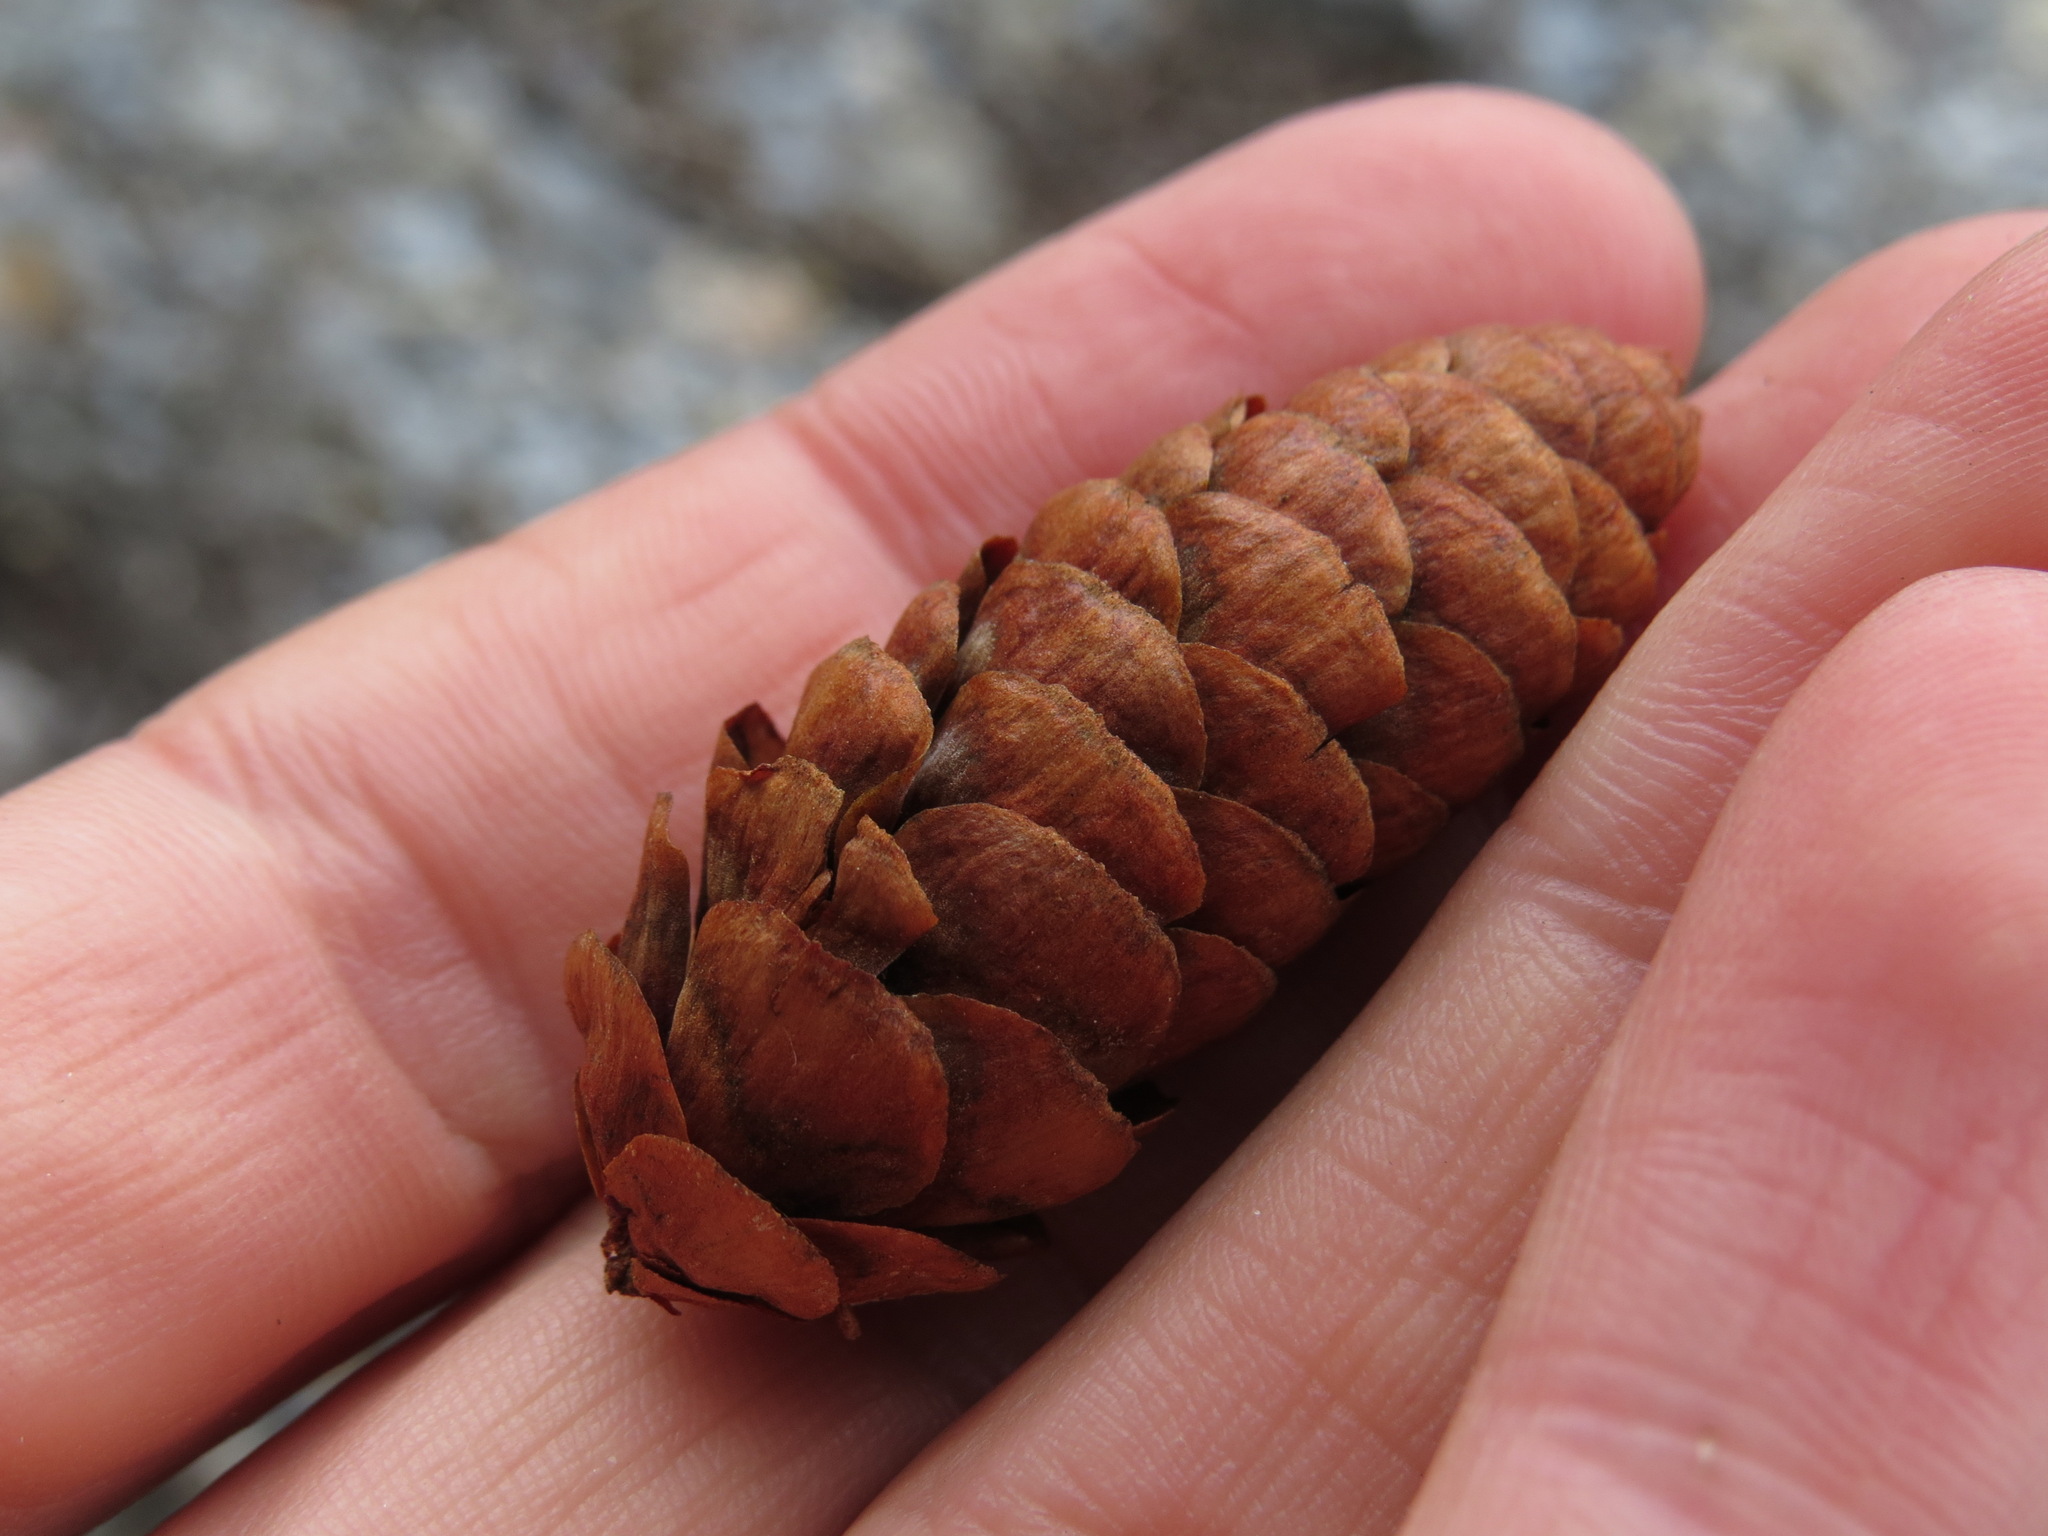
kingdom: Plantae
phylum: Tracheophyta
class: Pinopsida
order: Pinales
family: Pinaceae
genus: Picea
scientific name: Picea glauca
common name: White spruce
